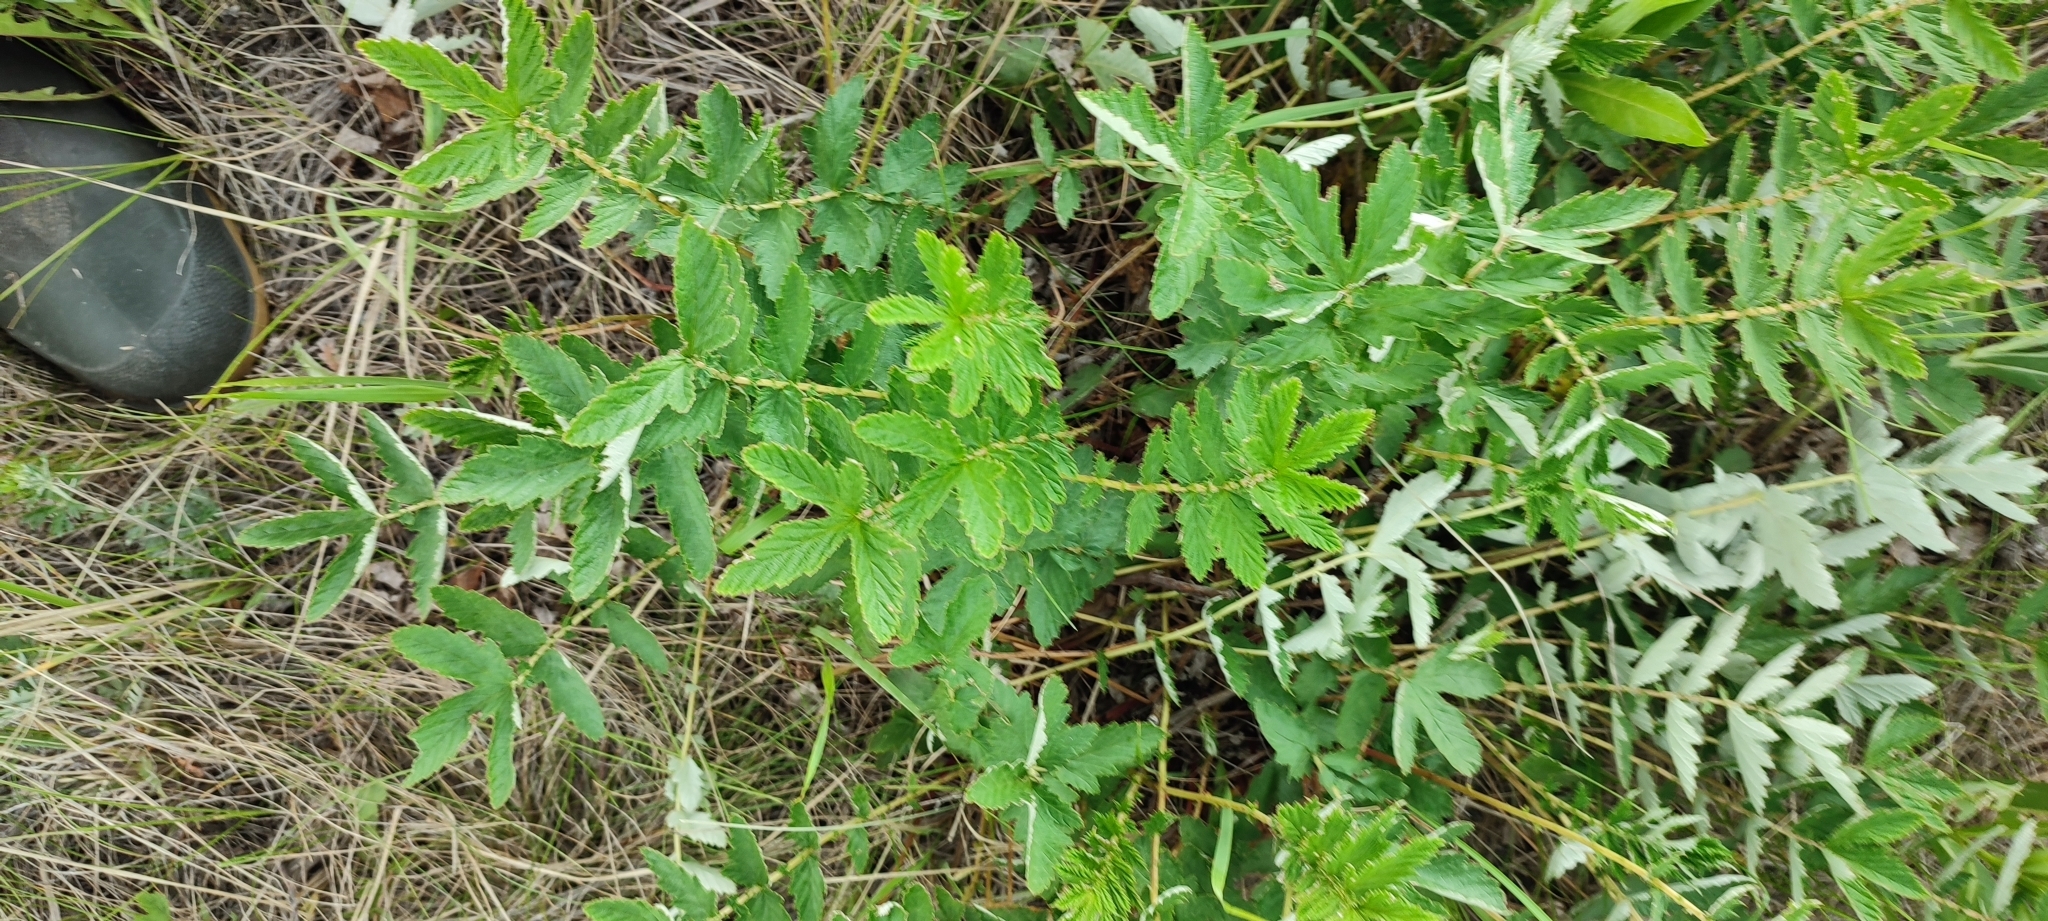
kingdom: Plantae
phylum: Tracheophyta
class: Magnoliopsida
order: Rosales
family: Rosaceae
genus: Filipendula
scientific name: Filipendula ulmaria
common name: Meadowsweet
